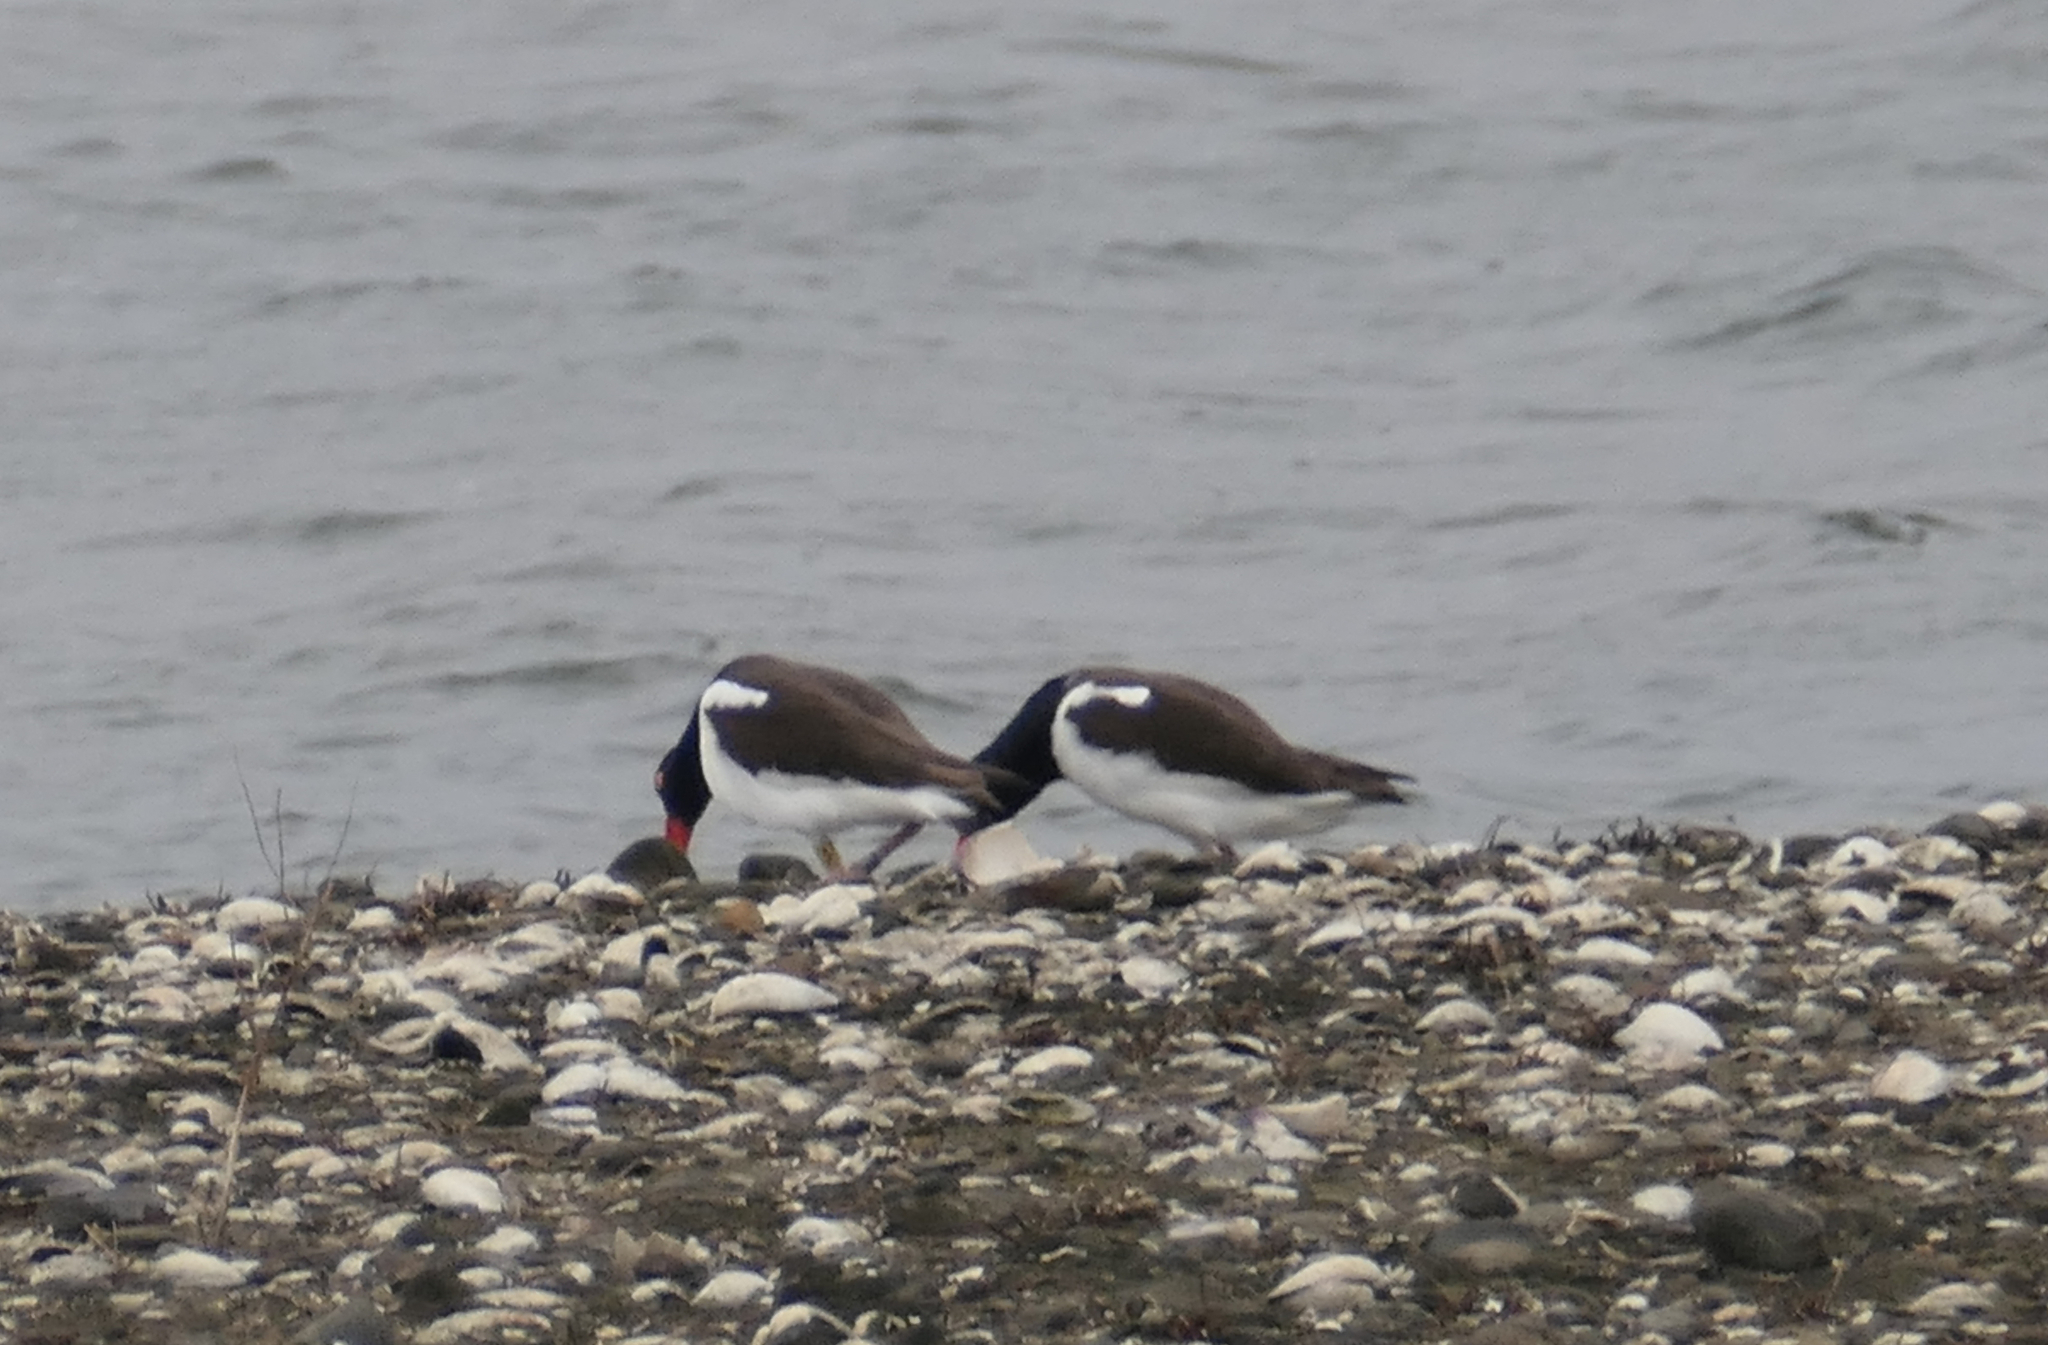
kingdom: Animalia
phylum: Chordata
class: Aves
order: Charadriiformes
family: Haematopodidae
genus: Haematopus
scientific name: Haematopus palliatus
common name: American oystercatcher
